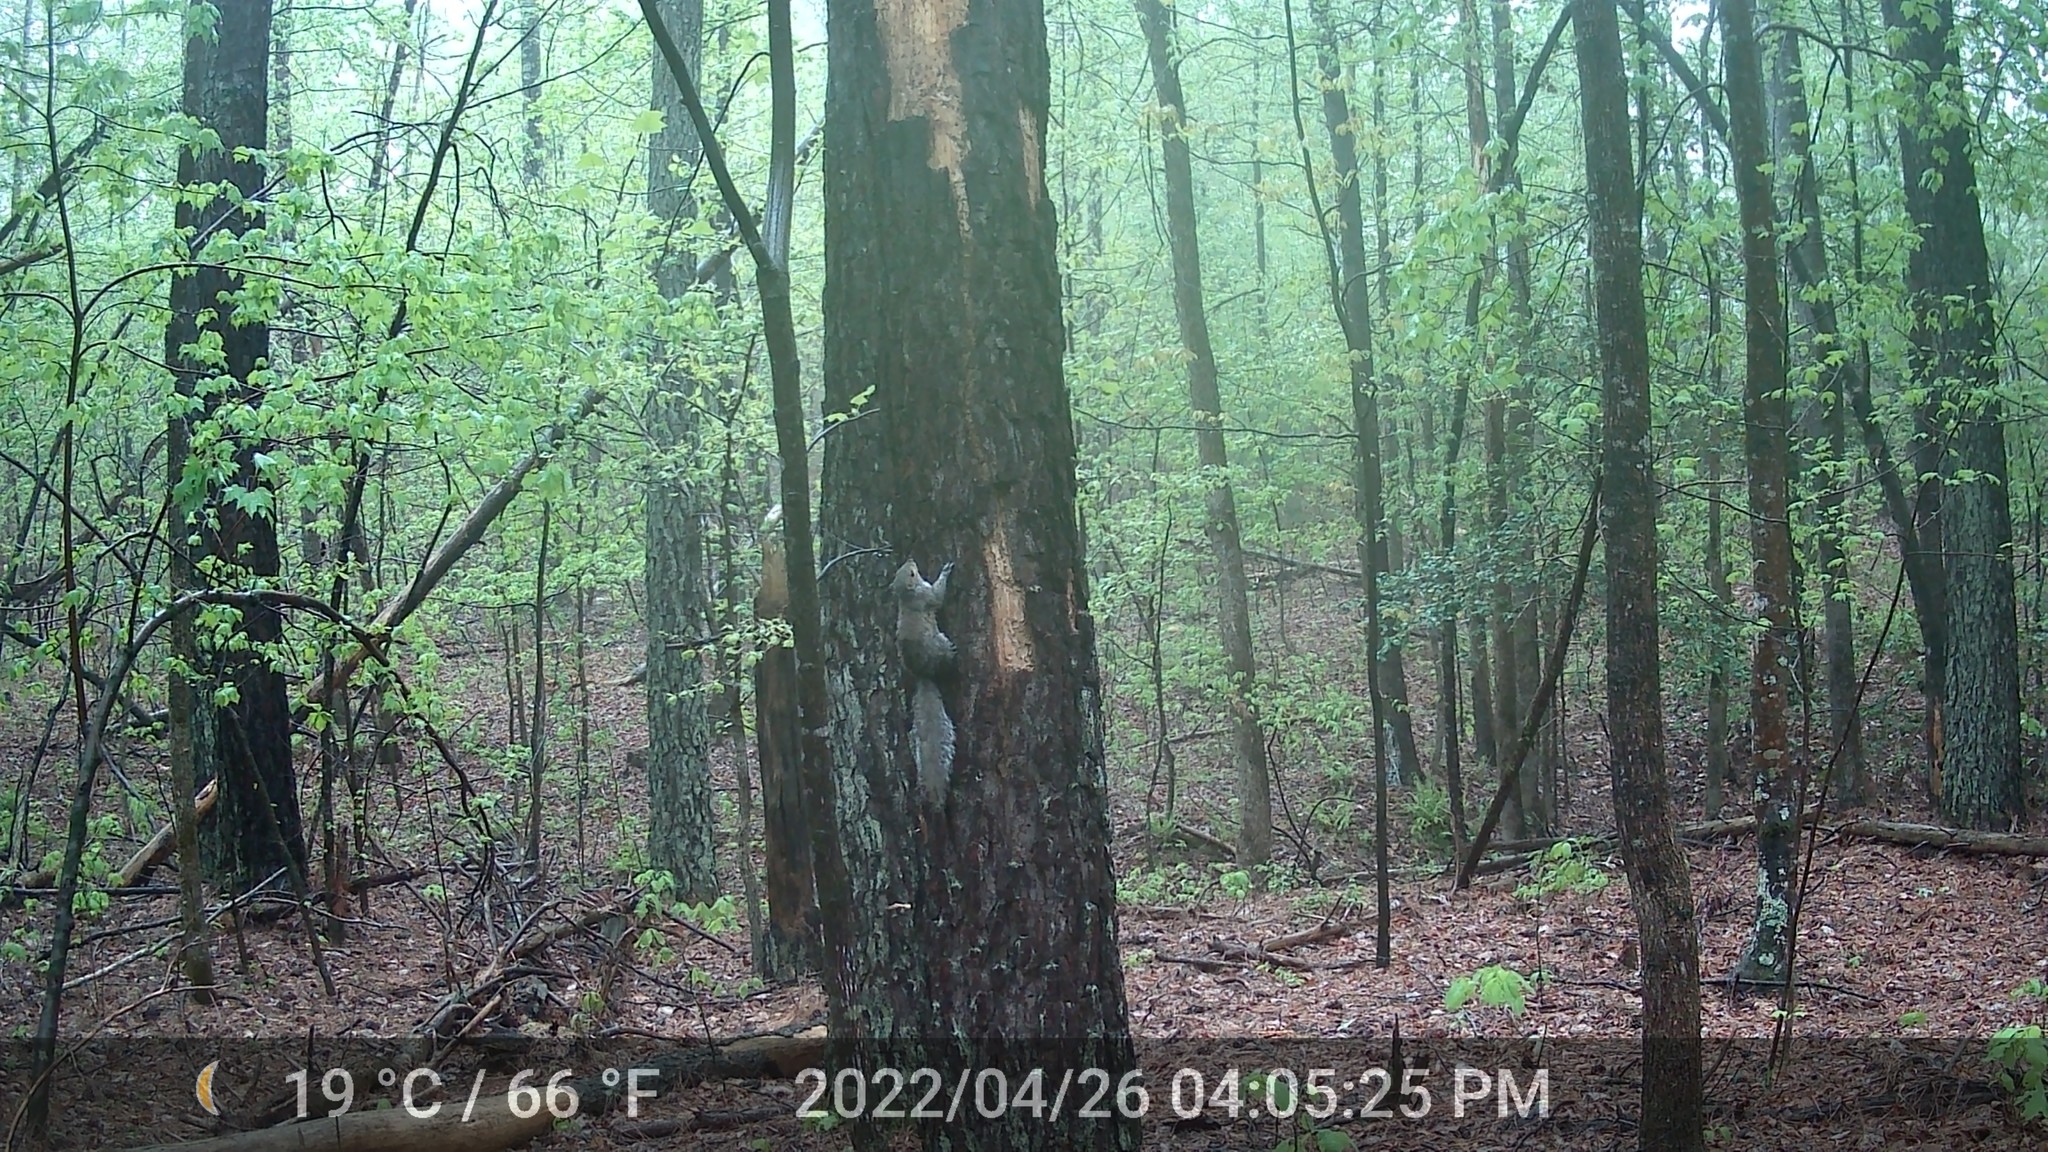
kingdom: Animalia
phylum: Chordata
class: Mammalia
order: Rodentia
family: Sciuridae
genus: Sciurus
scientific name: Sciurus carolinensis
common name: Eastern gray squirrel
